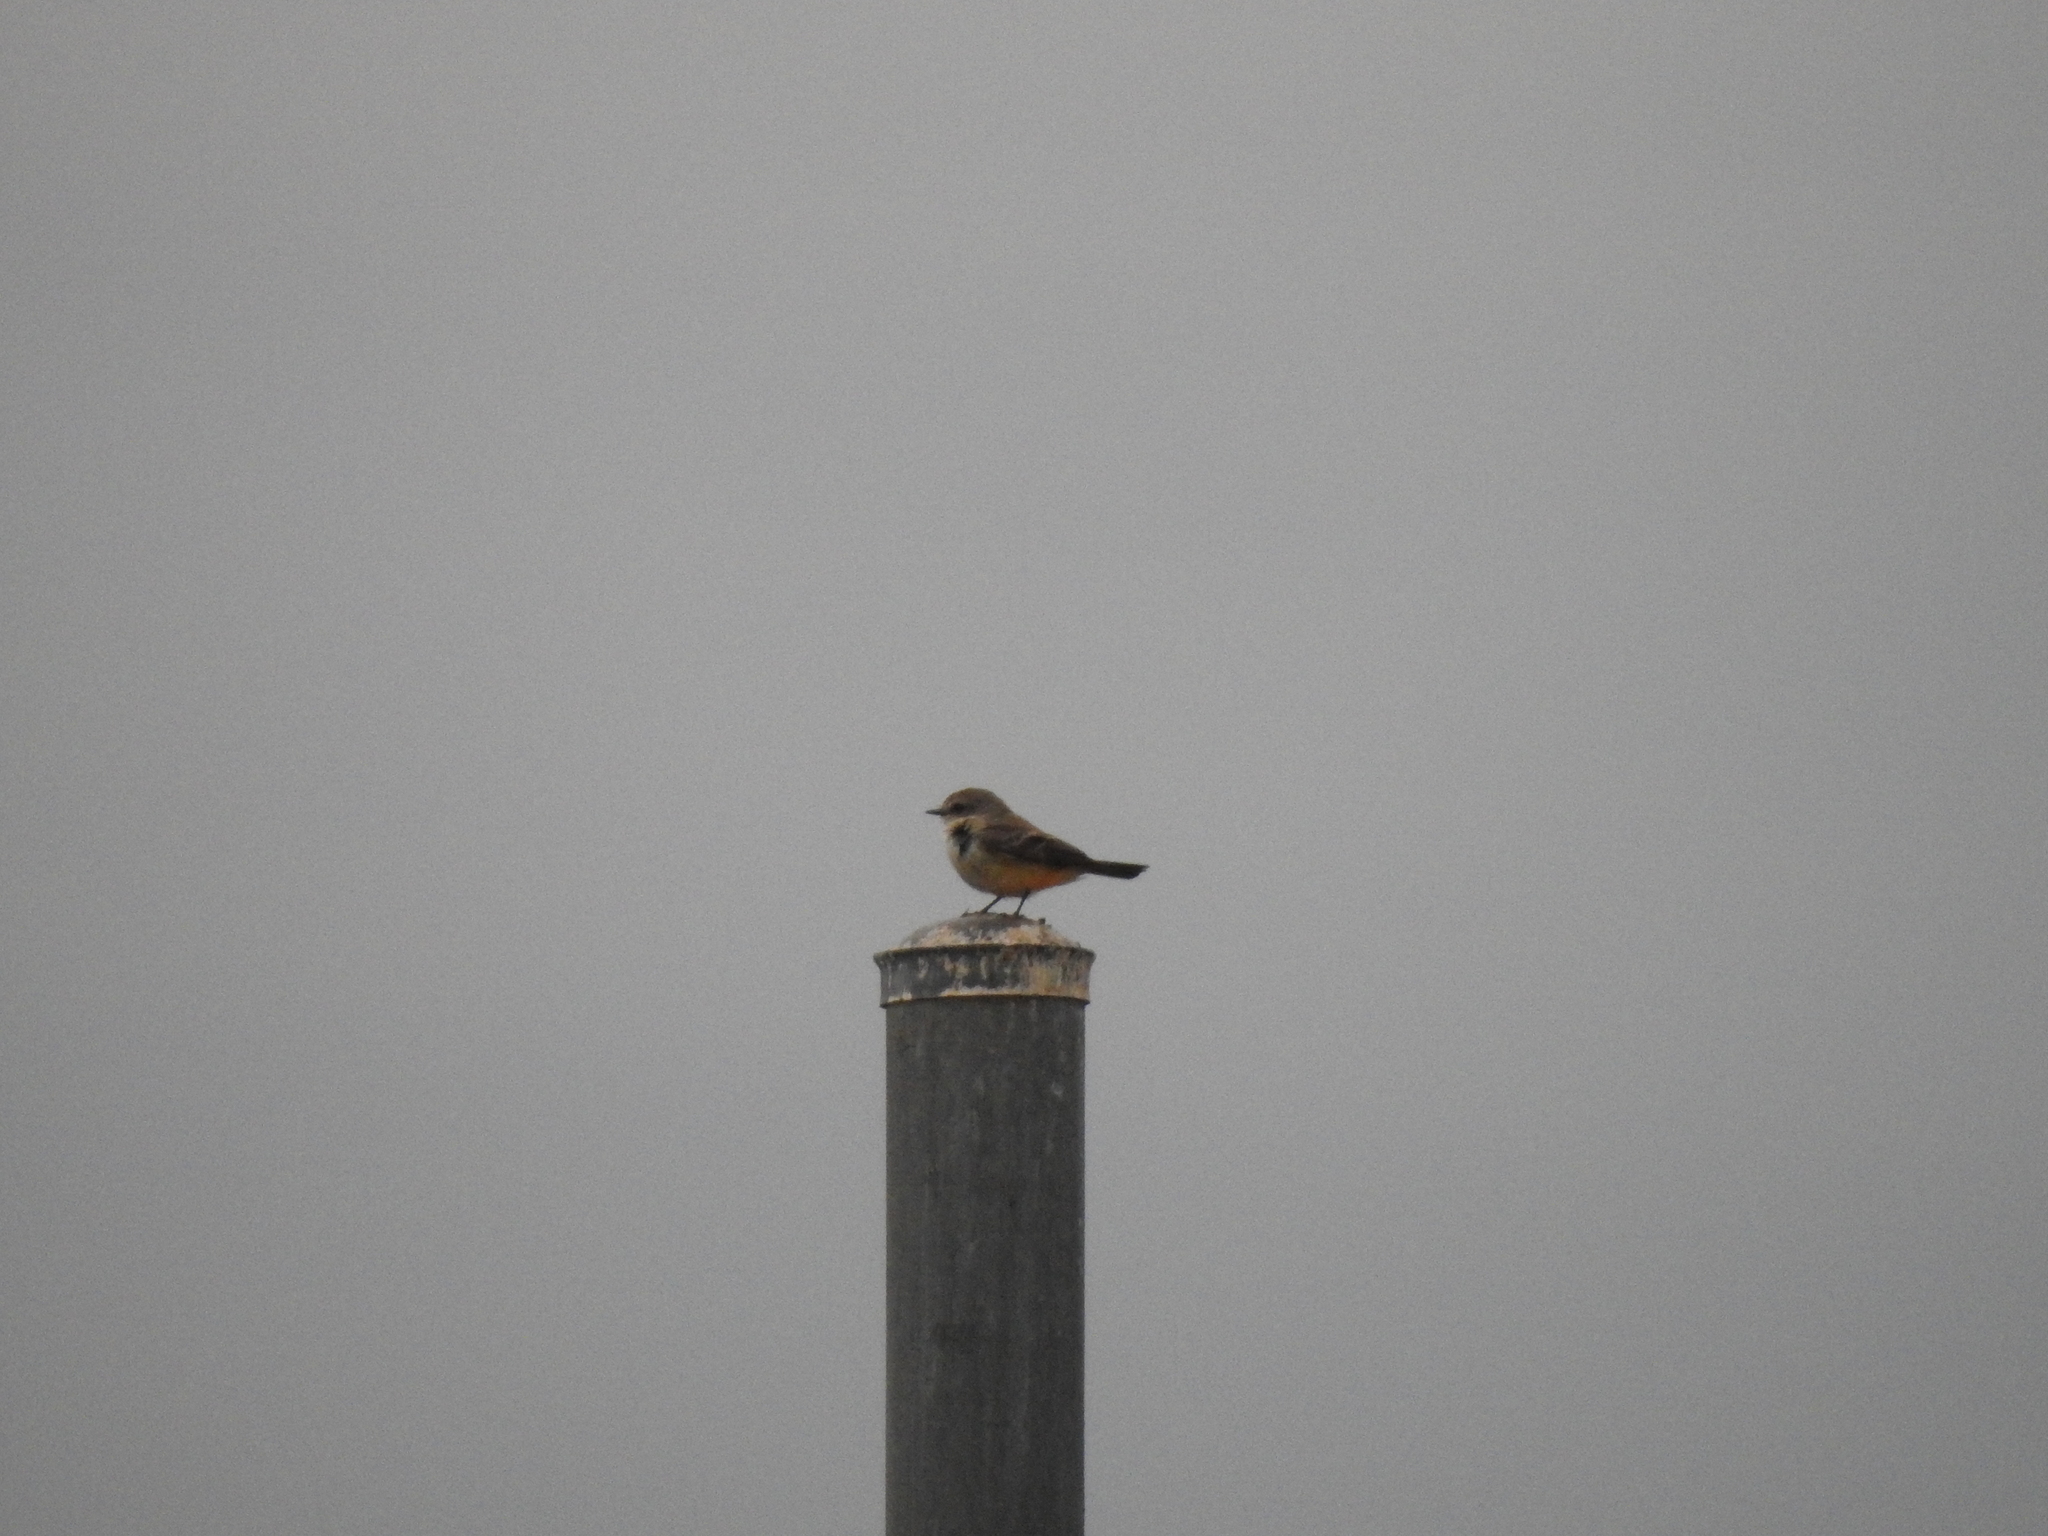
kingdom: Animalia
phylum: Chordata
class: Aves
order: Passeriformes
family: Tyrannidae
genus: Pyrocephalus
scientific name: Pyrocephalus rubinus
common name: Vermilion flycatcher
